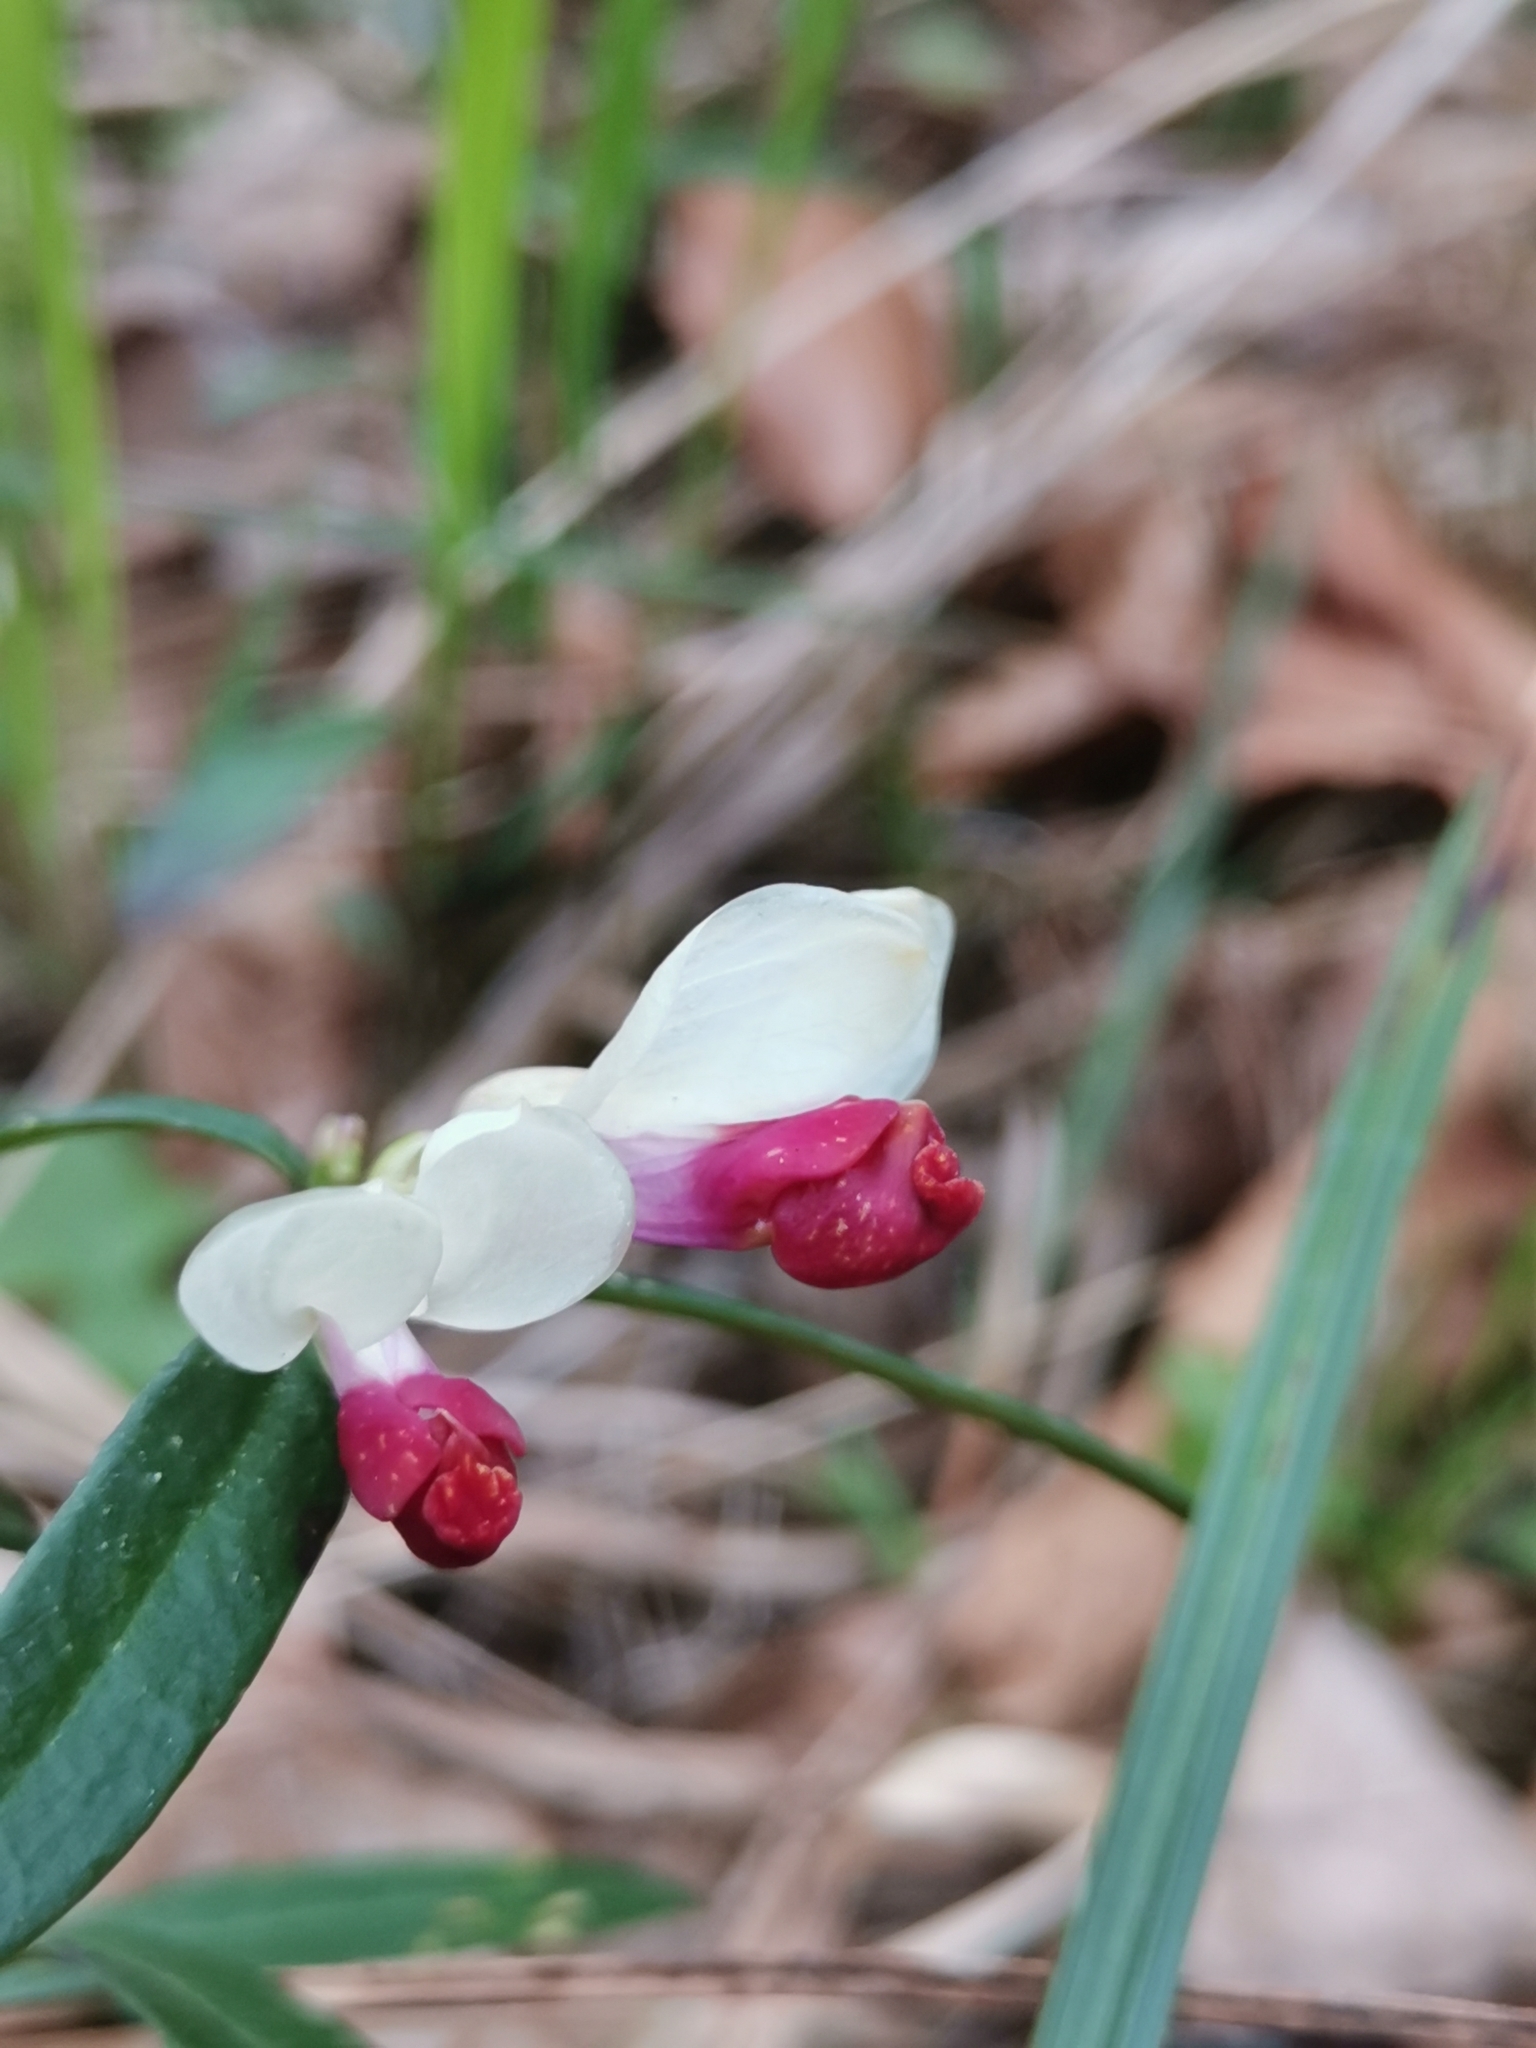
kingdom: Plantae
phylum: Tracheophyta
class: Magnoliopsida
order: Fabales
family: Polygalaceae
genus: Polygaloides
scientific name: Polygaloides chamaebuxus
